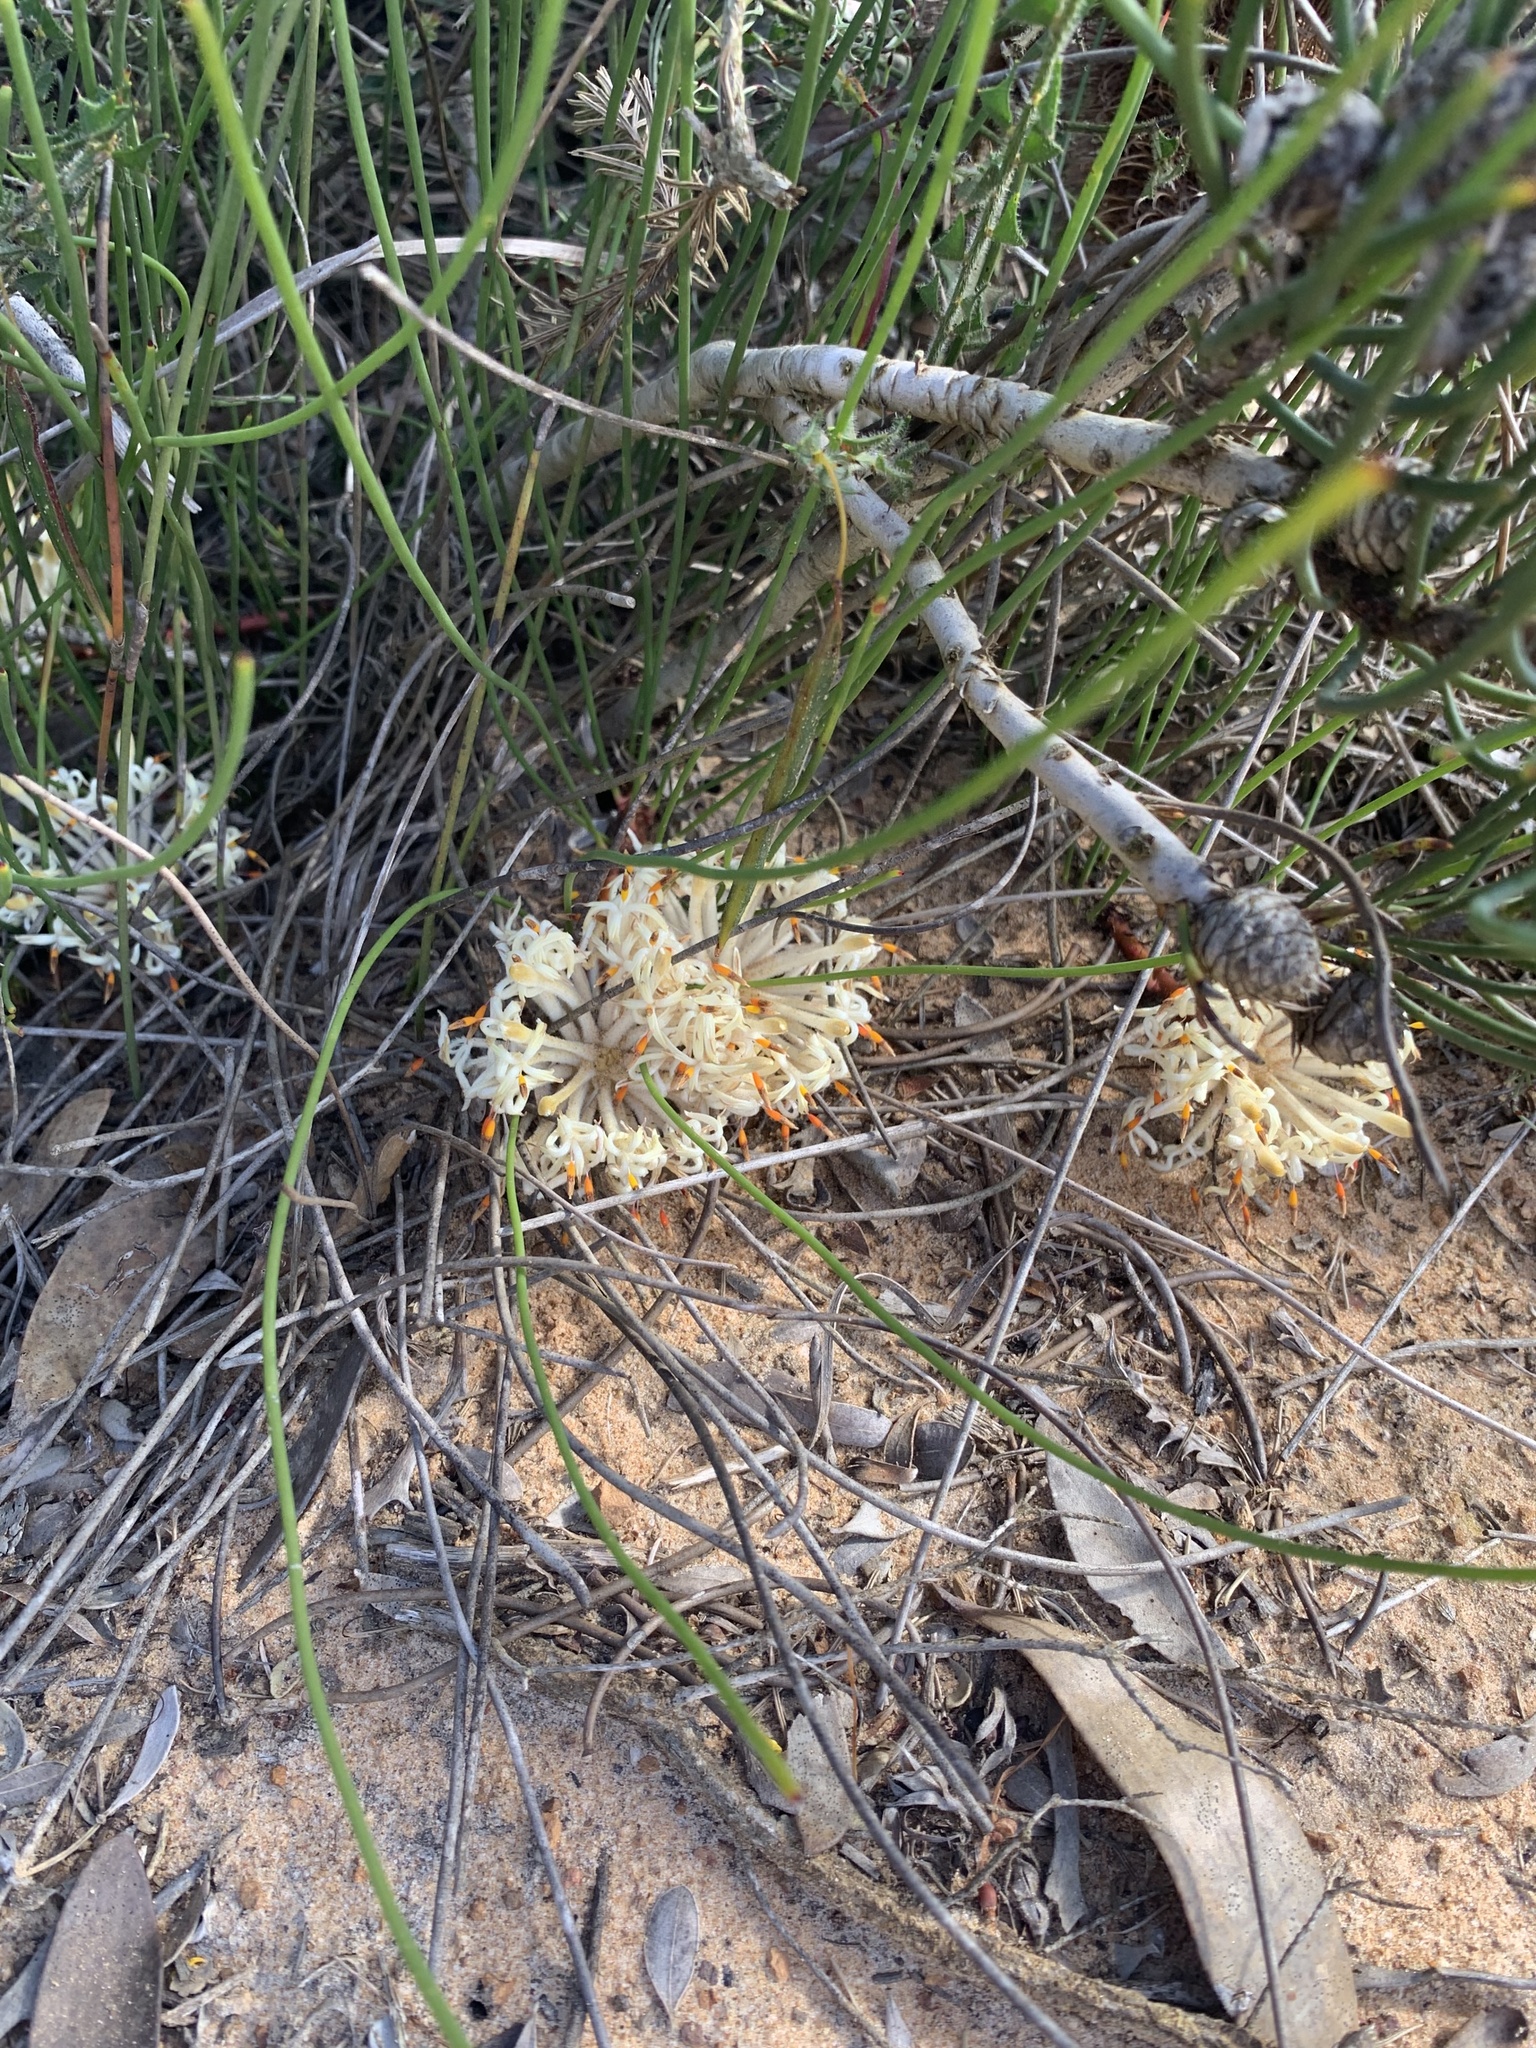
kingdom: Plantae
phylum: Tracheophyta
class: Magnoliopsida
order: Proteales
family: Proteaceae
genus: Petrophile
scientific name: Petrophile prostrata
